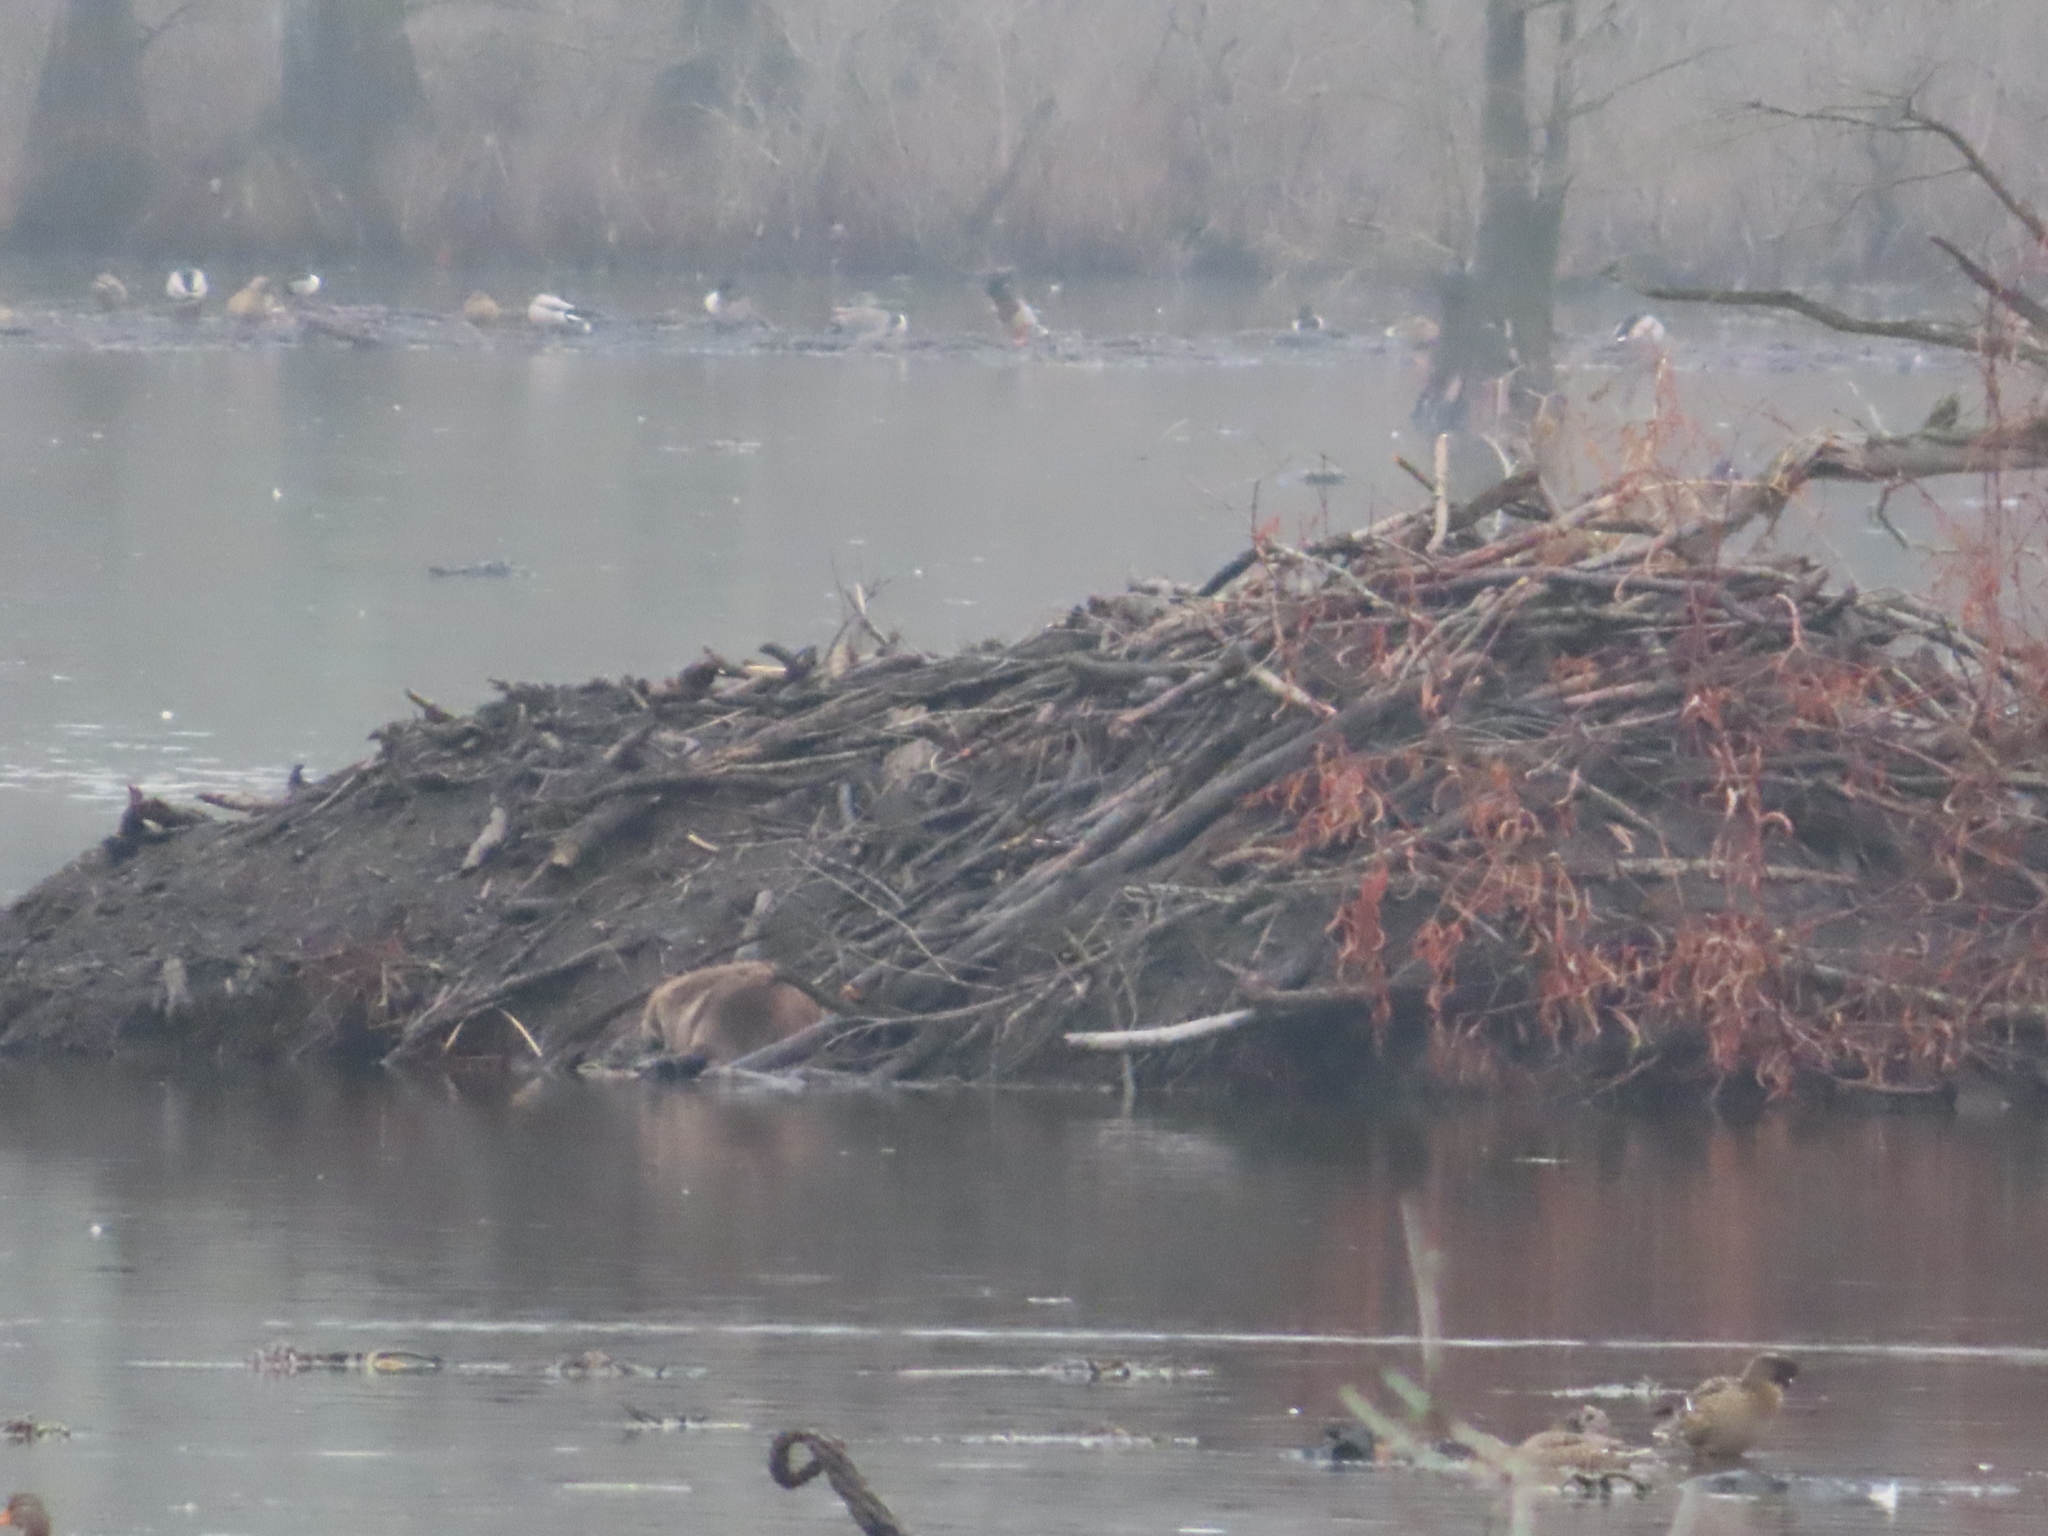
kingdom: Animalia
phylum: Chordata
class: Mammalia
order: Rodentia
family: Castoridae
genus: Castor
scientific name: Castor canadensis
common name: American beaver
